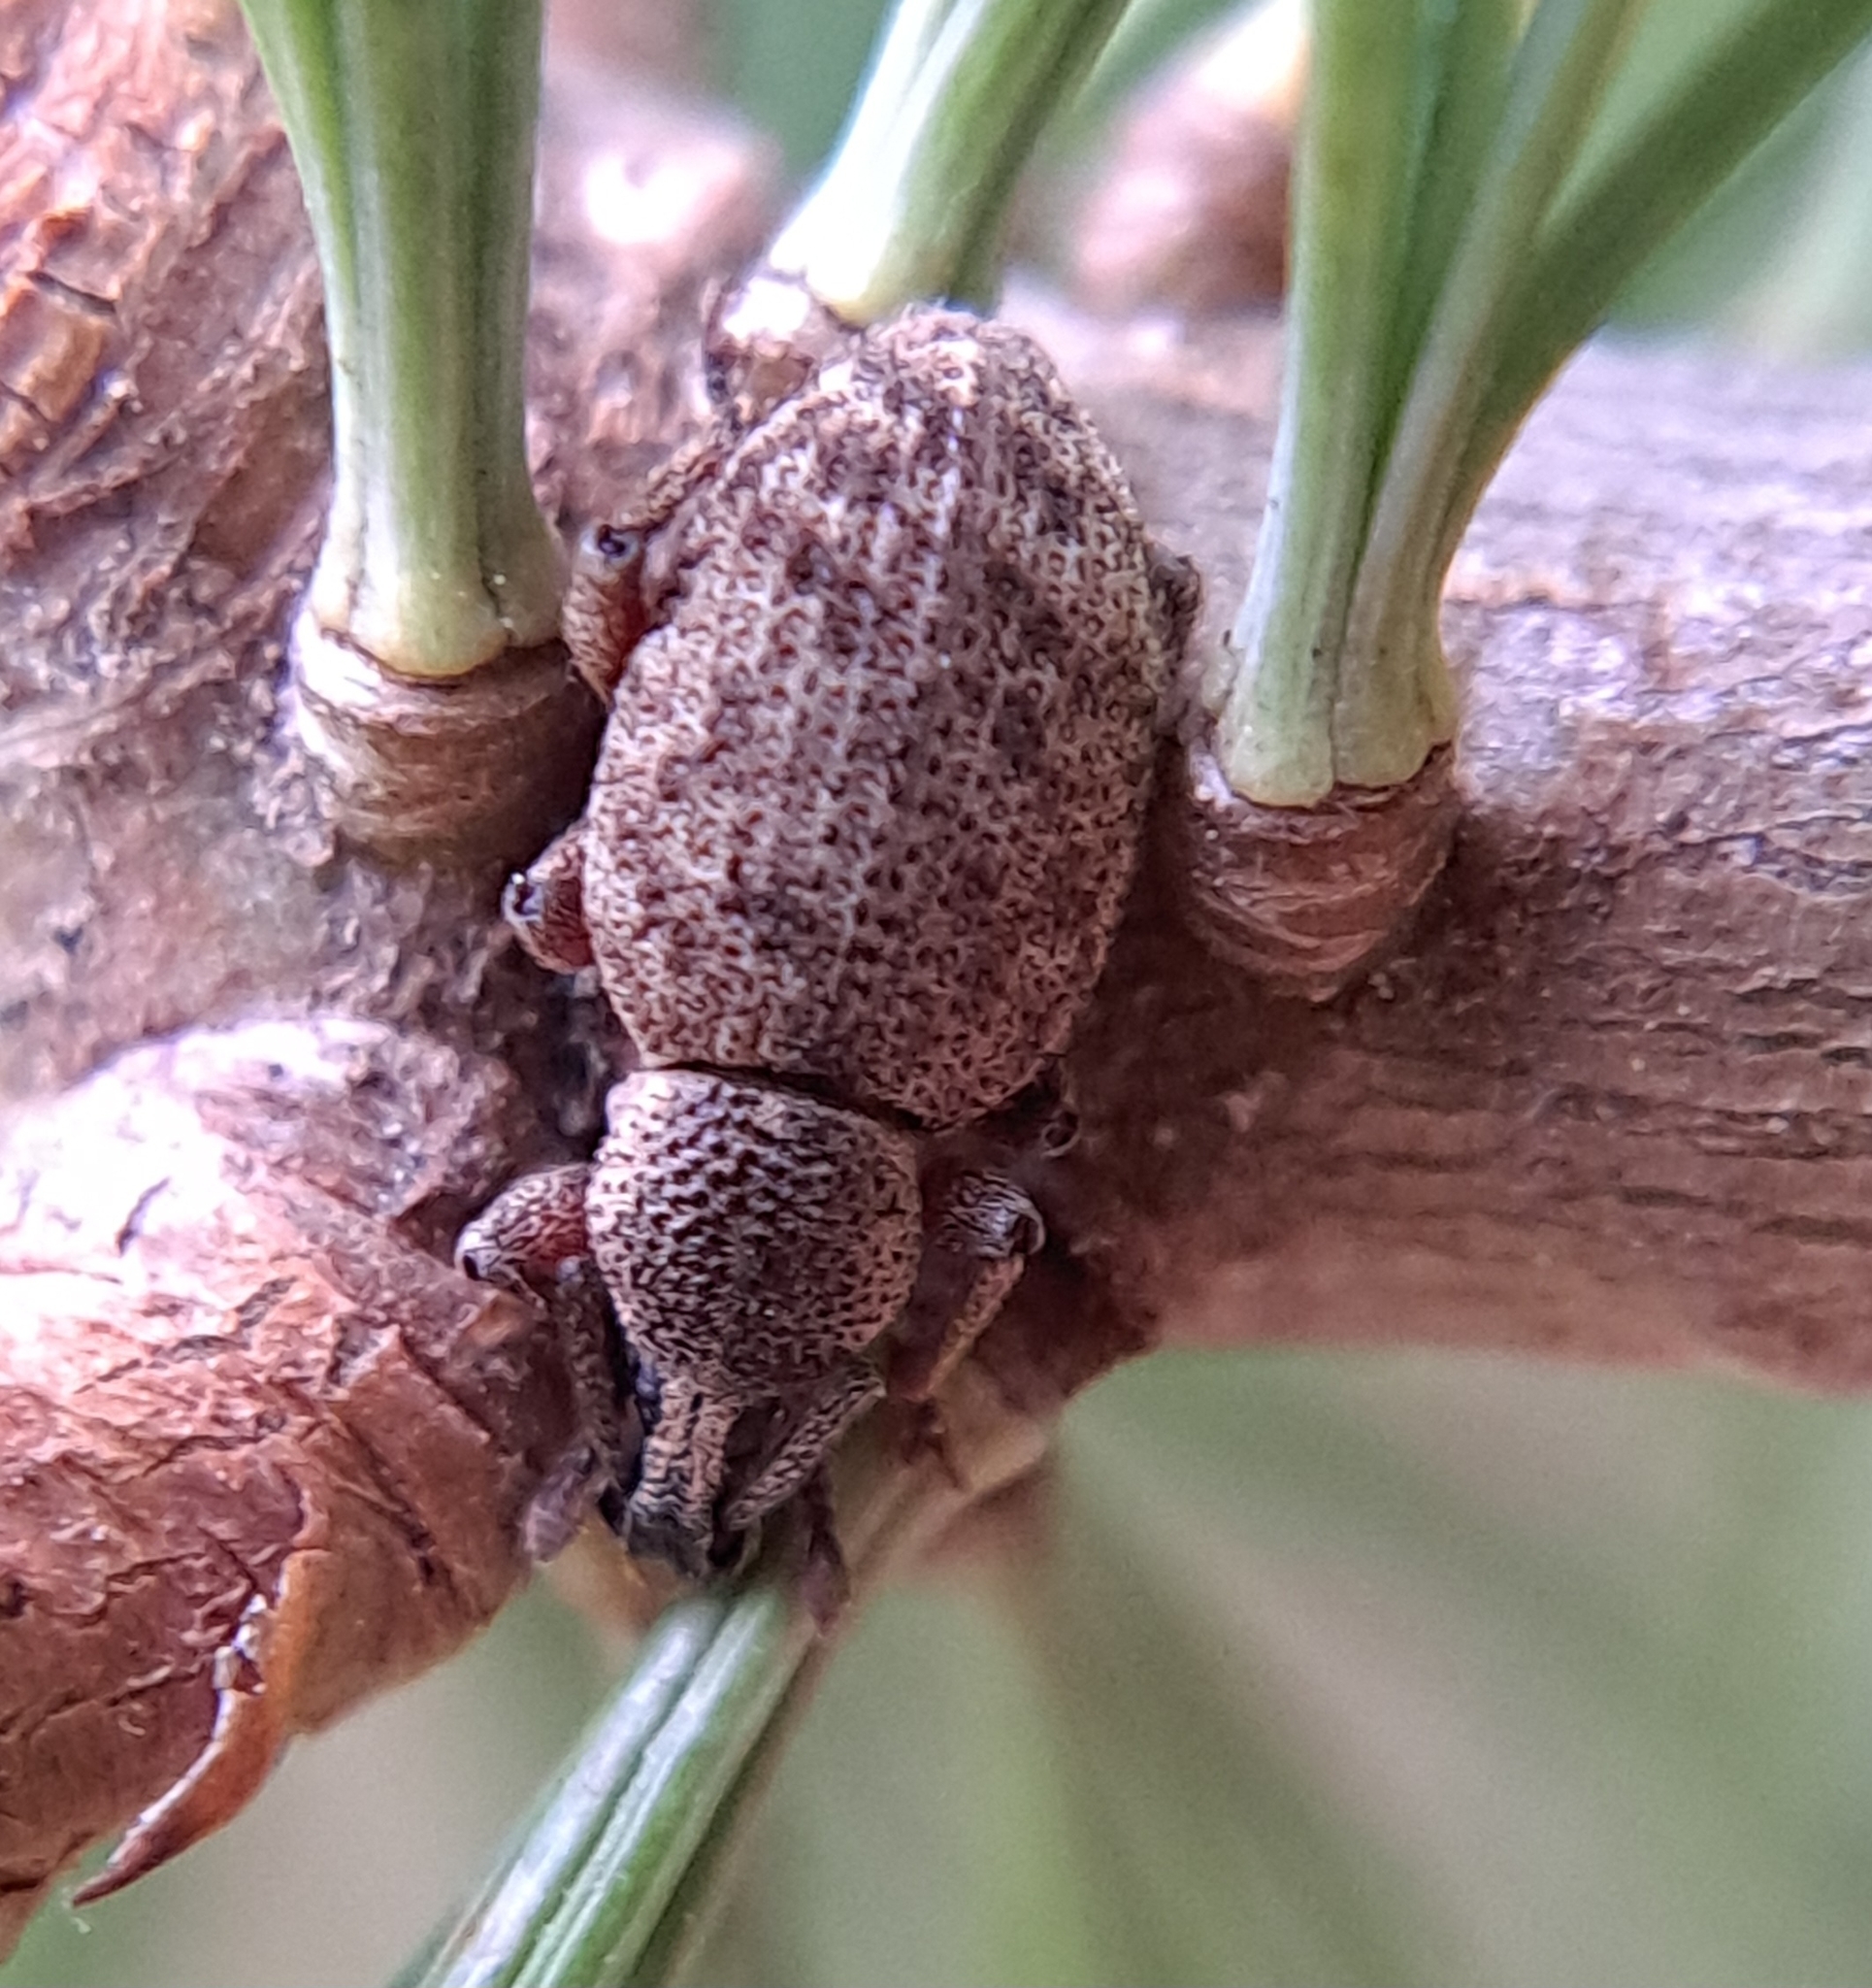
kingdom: Animalia
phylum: Arthropoda
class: Insecta
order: Coleoptera
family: Curculionidae
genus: Otiorhynchus
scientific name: Otiorhynchus singularis
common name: Clay-coloured weevil
